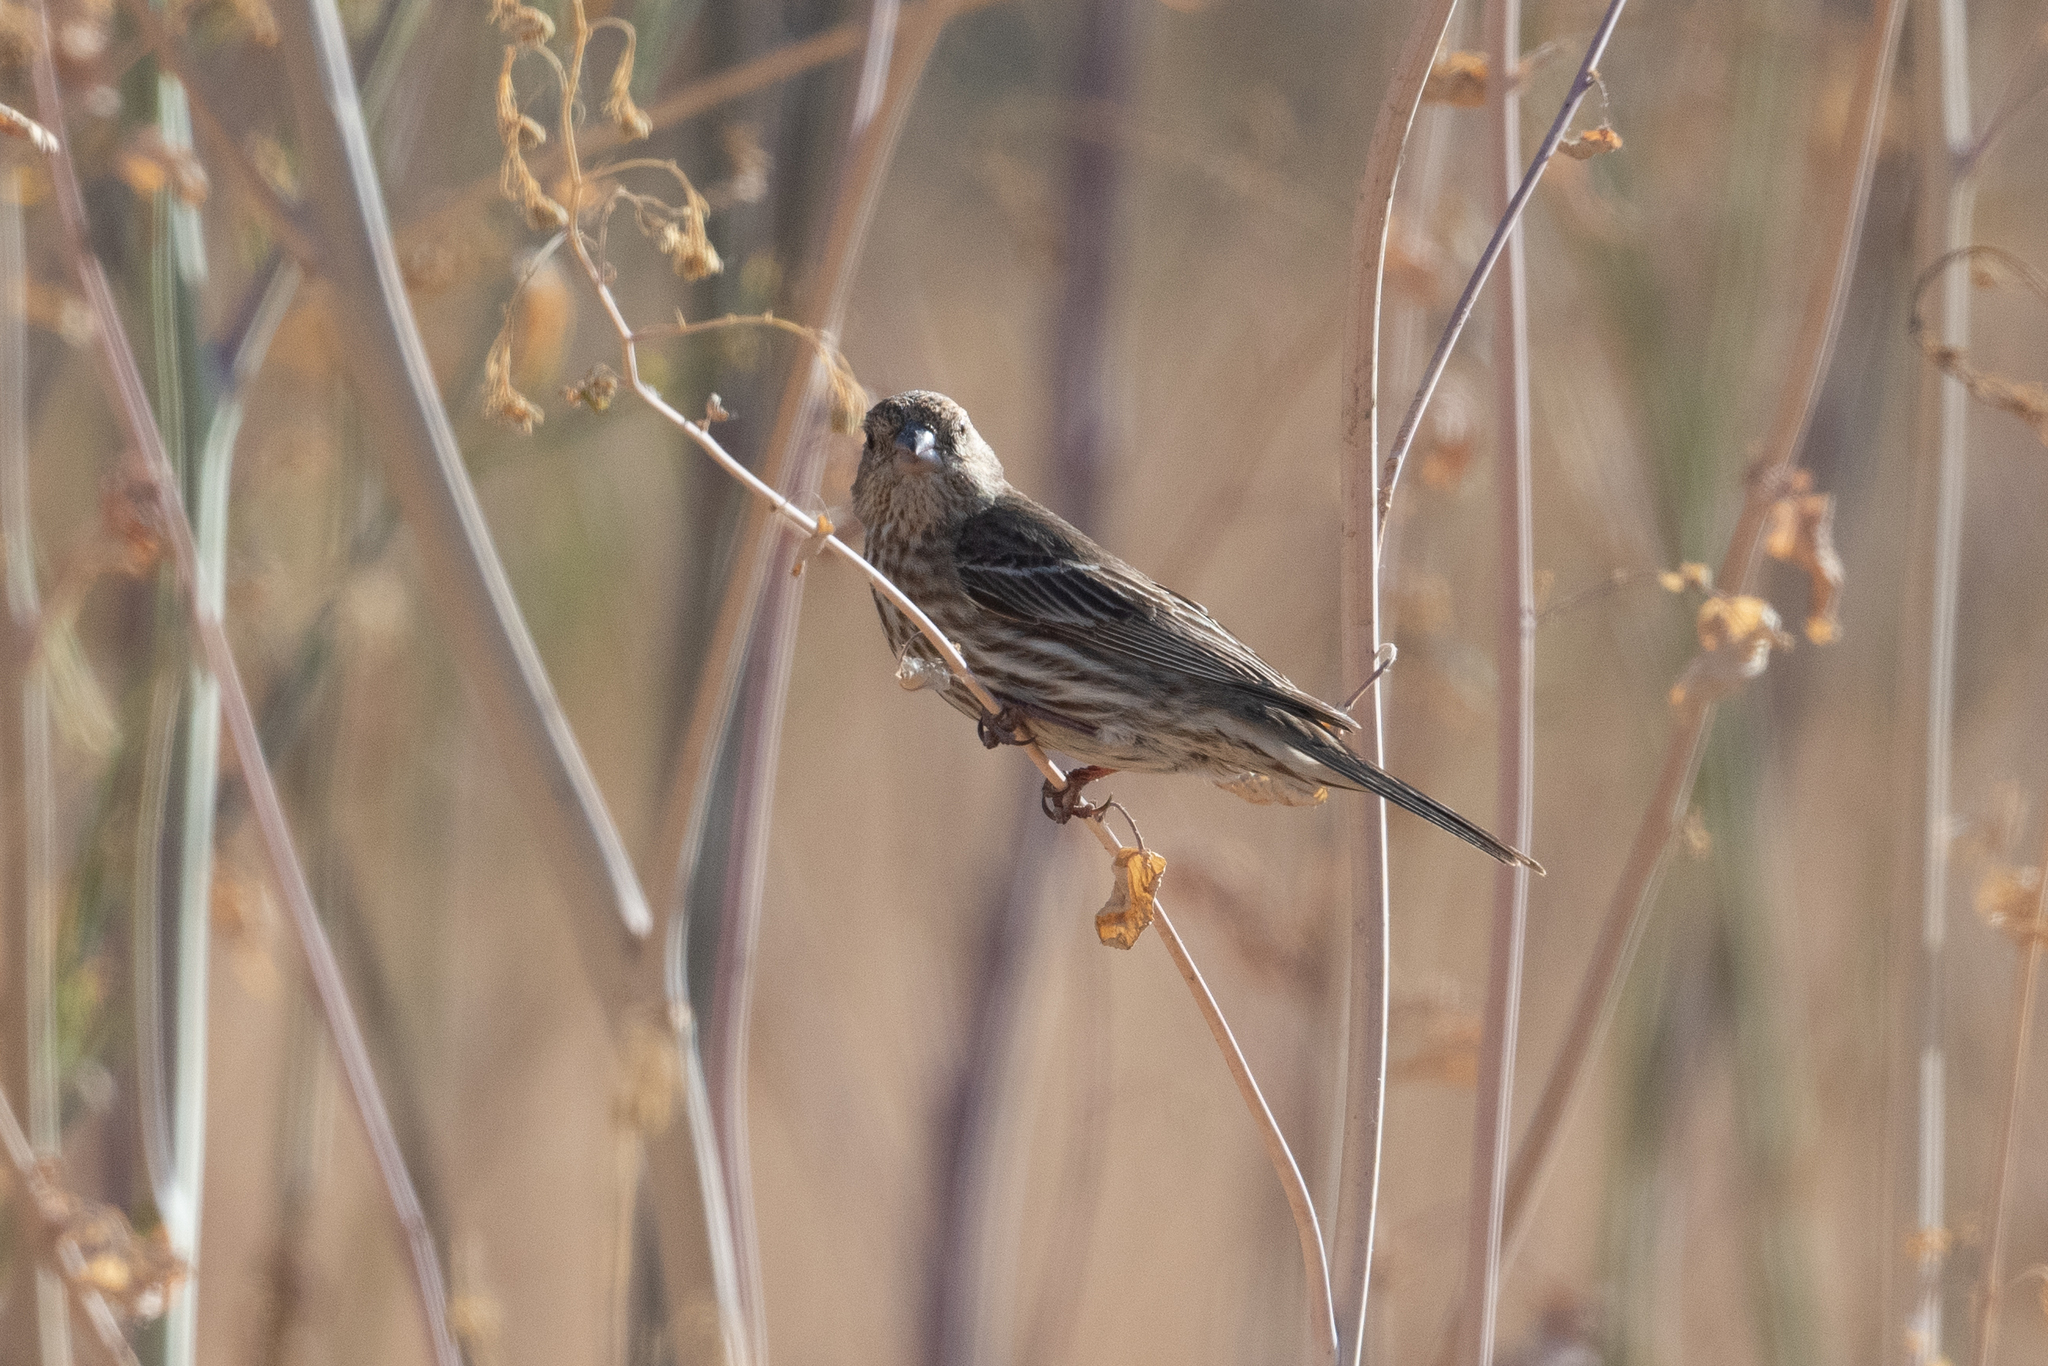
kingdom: Animalia
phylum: Chordata
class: Aves
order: Passeriformes
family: Fringillidae
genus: Haemorhous
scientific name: Haemorhous mexicanus
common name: House finch
